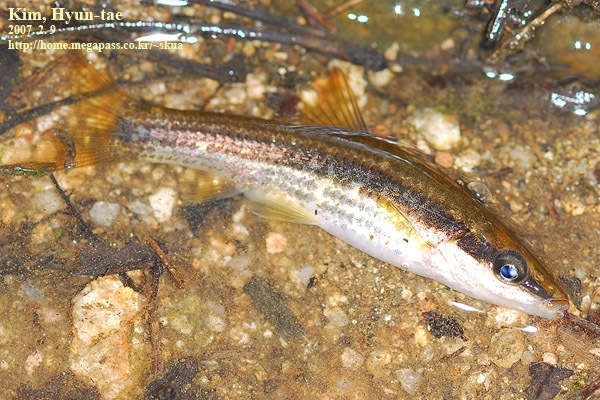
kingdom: Animalia
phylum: Chordata
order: Cypriniformes
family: Cyprinidae
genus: Pungtungia
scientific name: Pungtungia herzi
